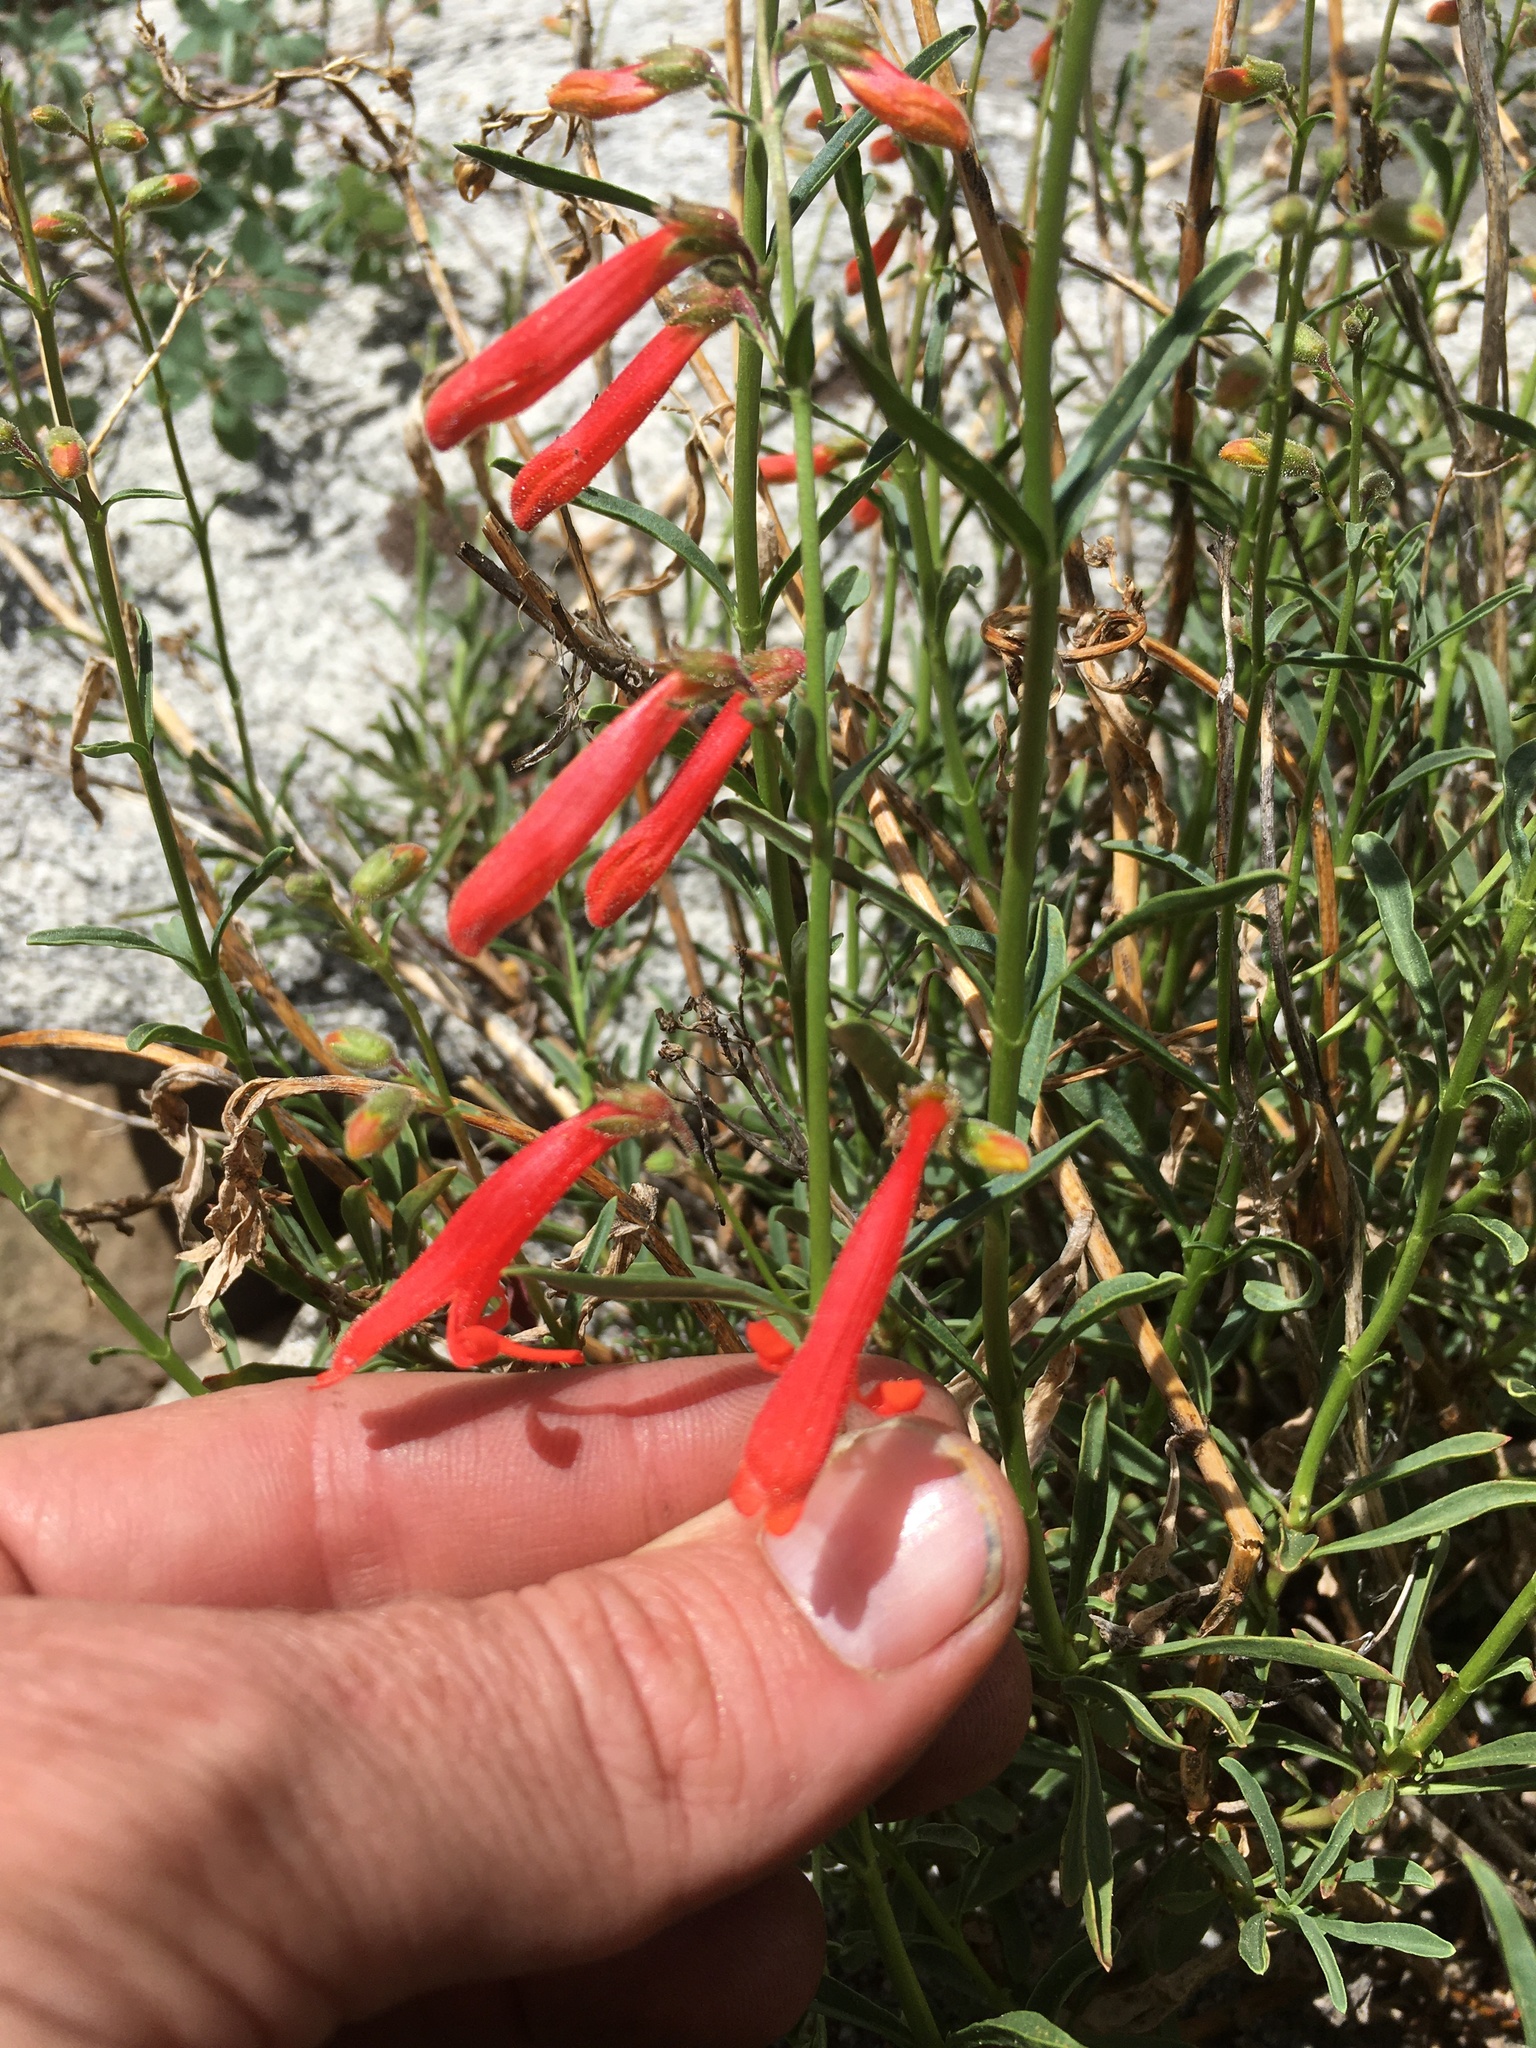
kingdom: Plantae
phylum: Tracheophyta
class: Magnoliopsida
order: Lamiales
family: Plantaginaceae
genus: Penstemon
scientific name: Penstemon rostriflorus
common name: Bridges's penstemon
